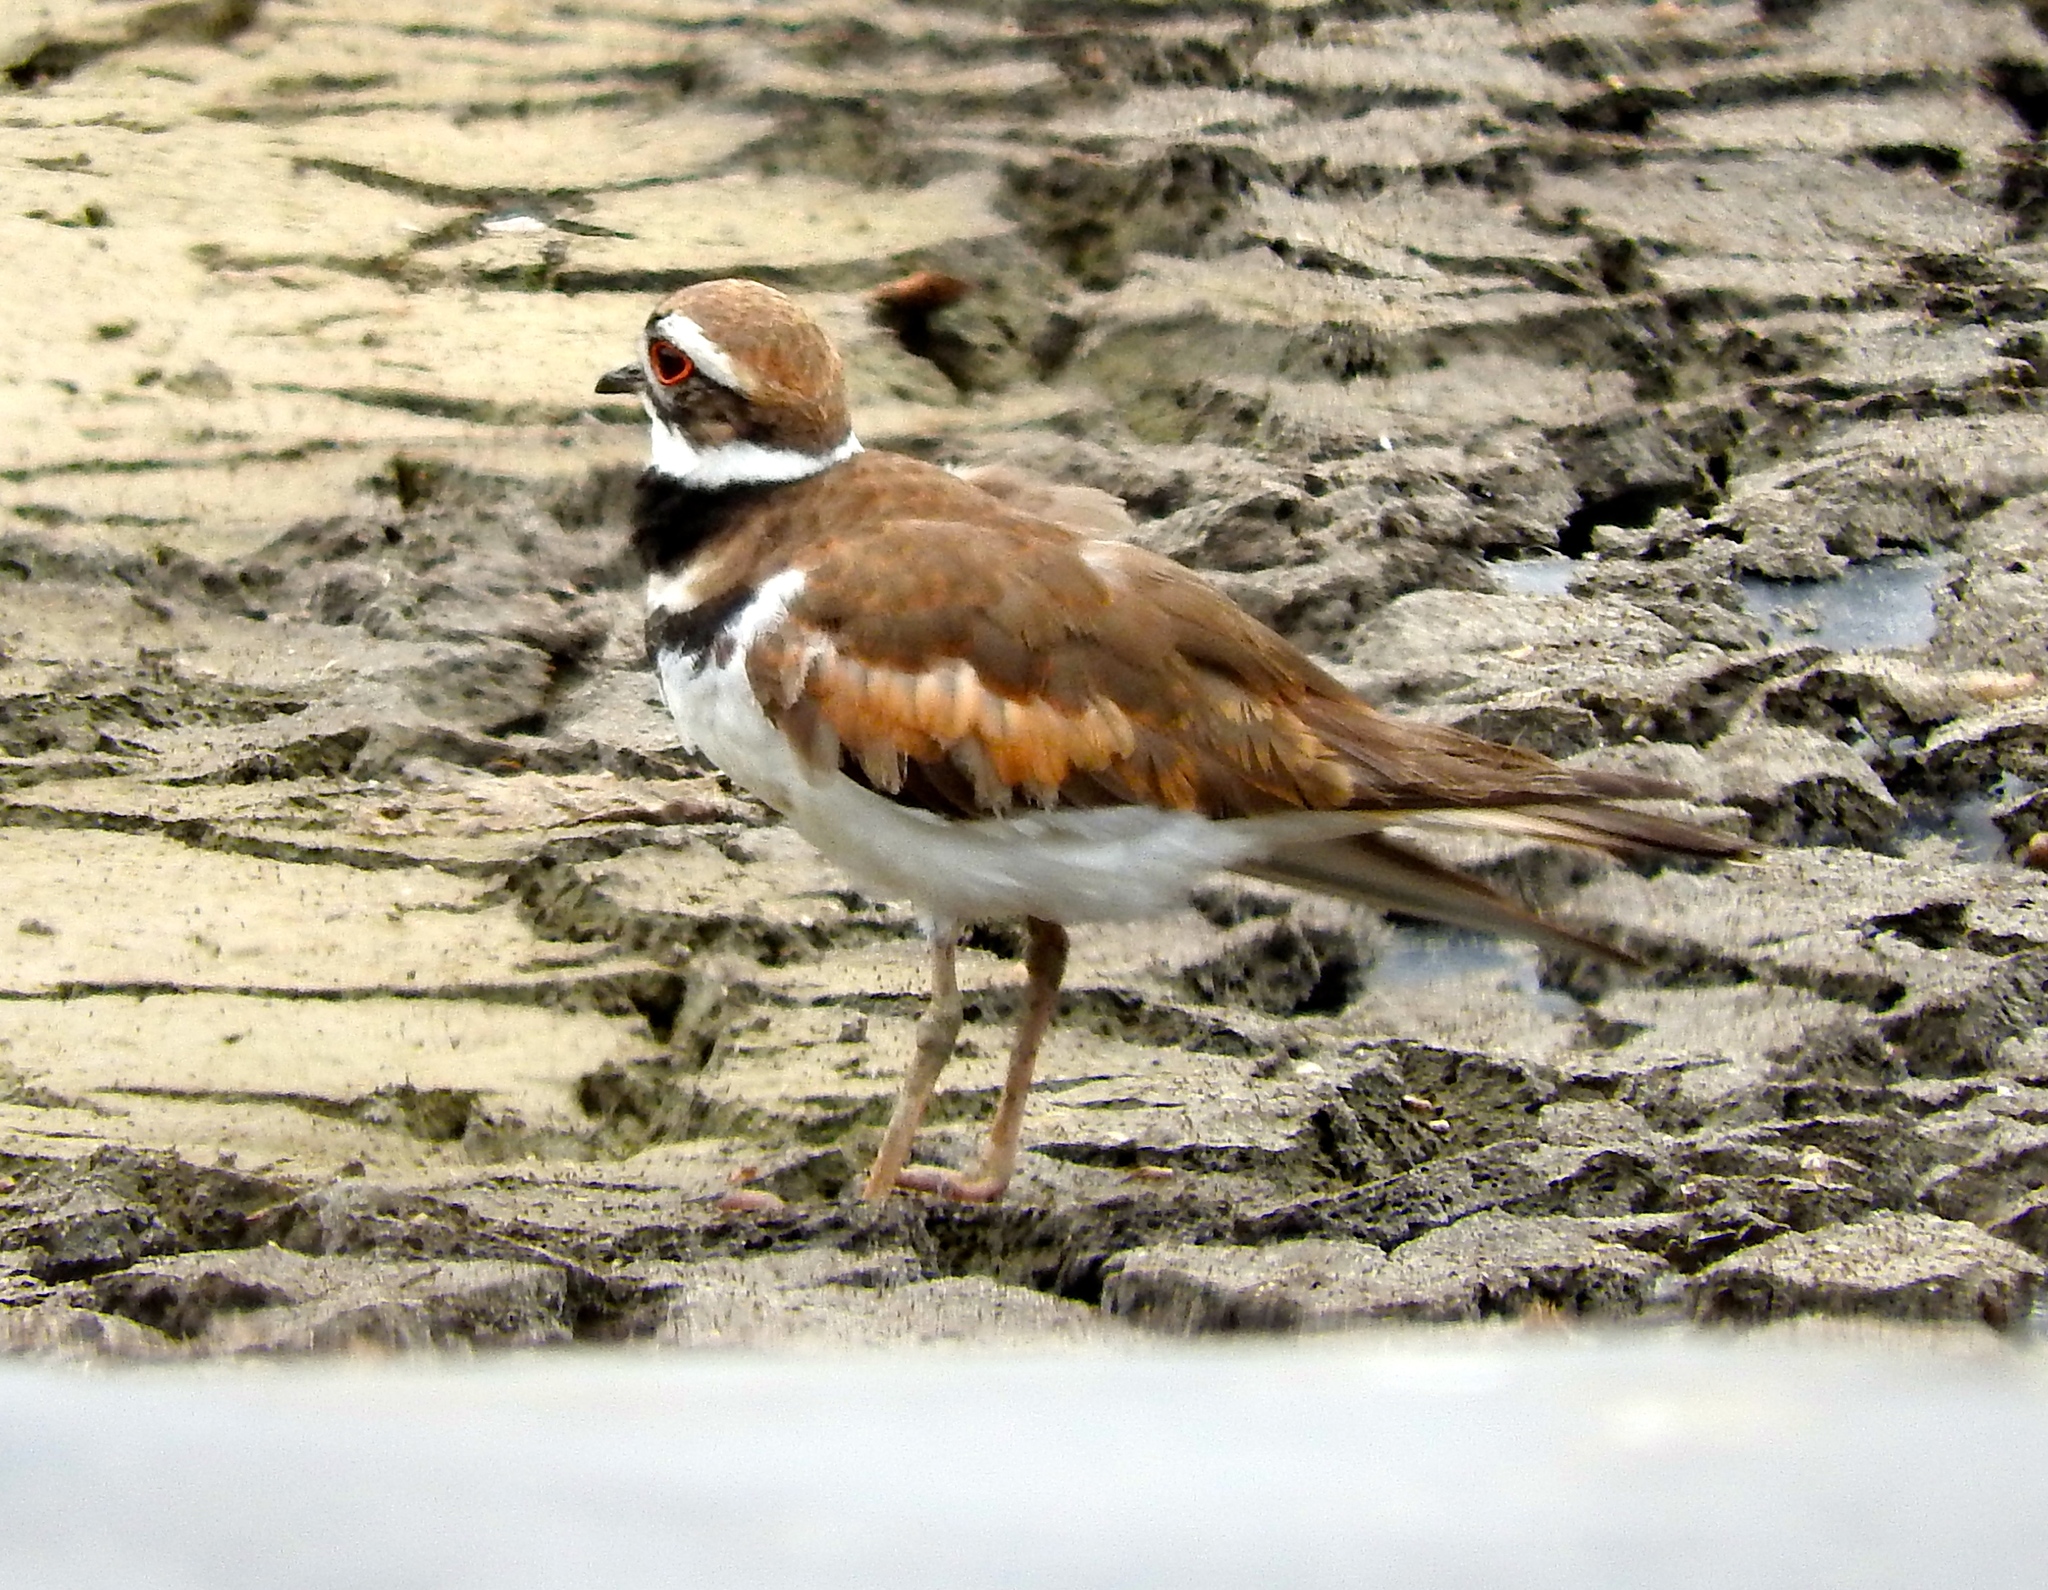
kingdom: Animalia
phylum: Chordata
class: Aves
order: Charadriiformes
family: Charadriidae
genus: Charadrius
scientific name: Charadrius vociferus
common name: Killdeer
